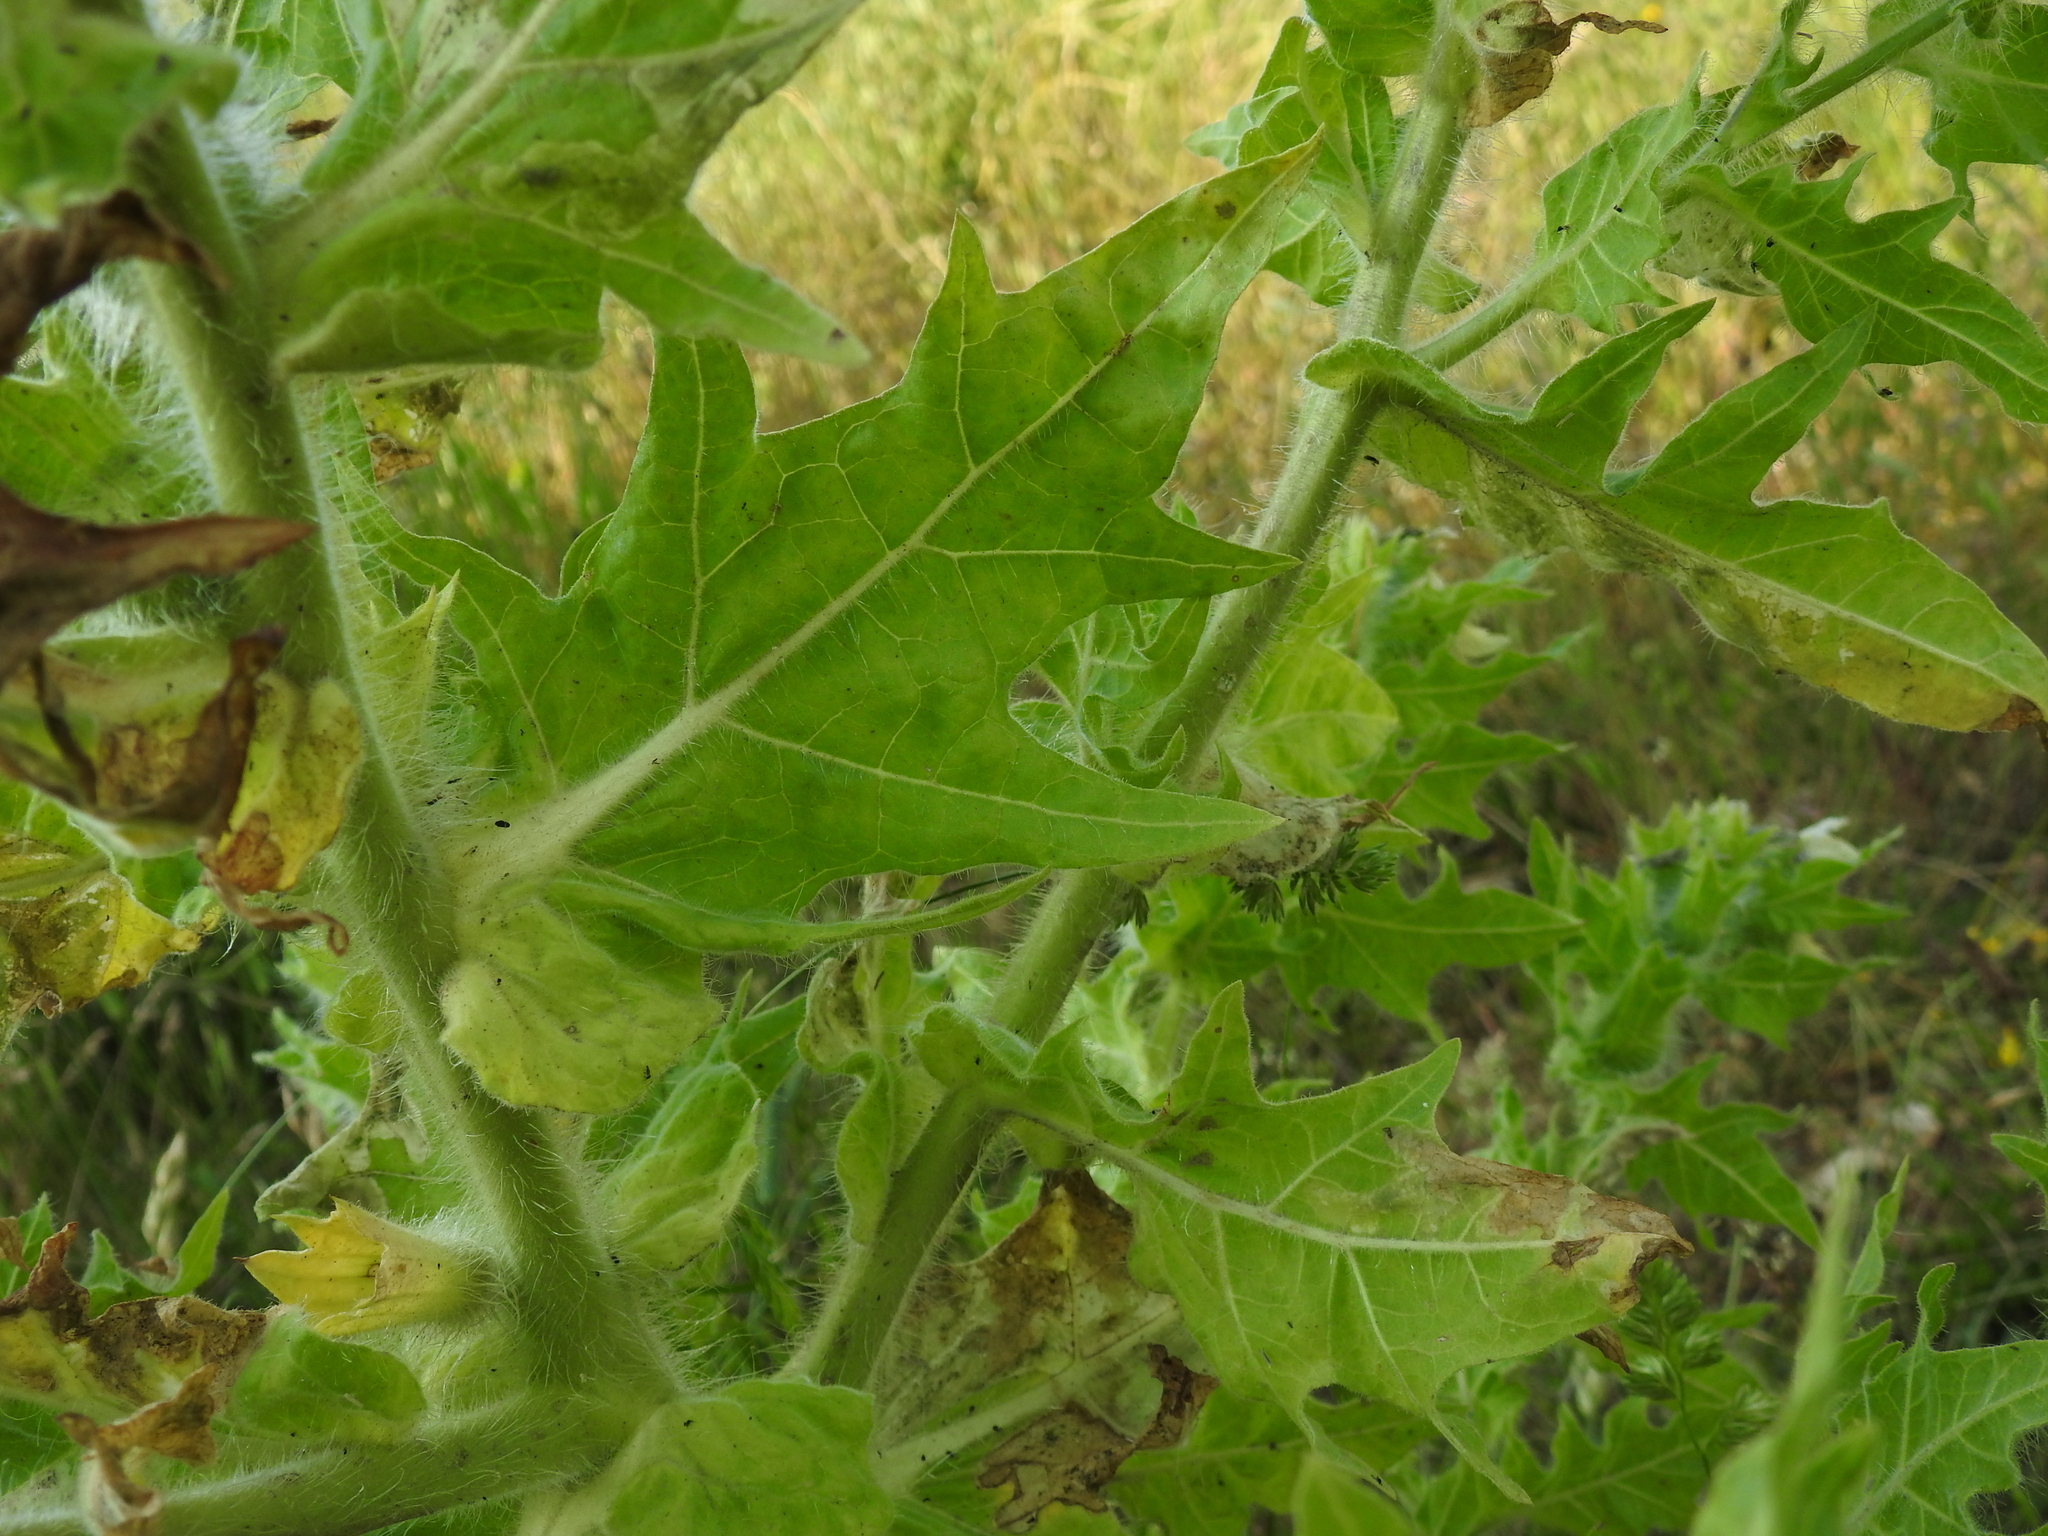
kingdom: Plantae
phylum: Tracheophyta
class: Magnoliopsida
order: Solanales
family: Solanaceae
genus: Hyoscyamus
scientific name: Hyoscyamus niger
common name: Henbane
